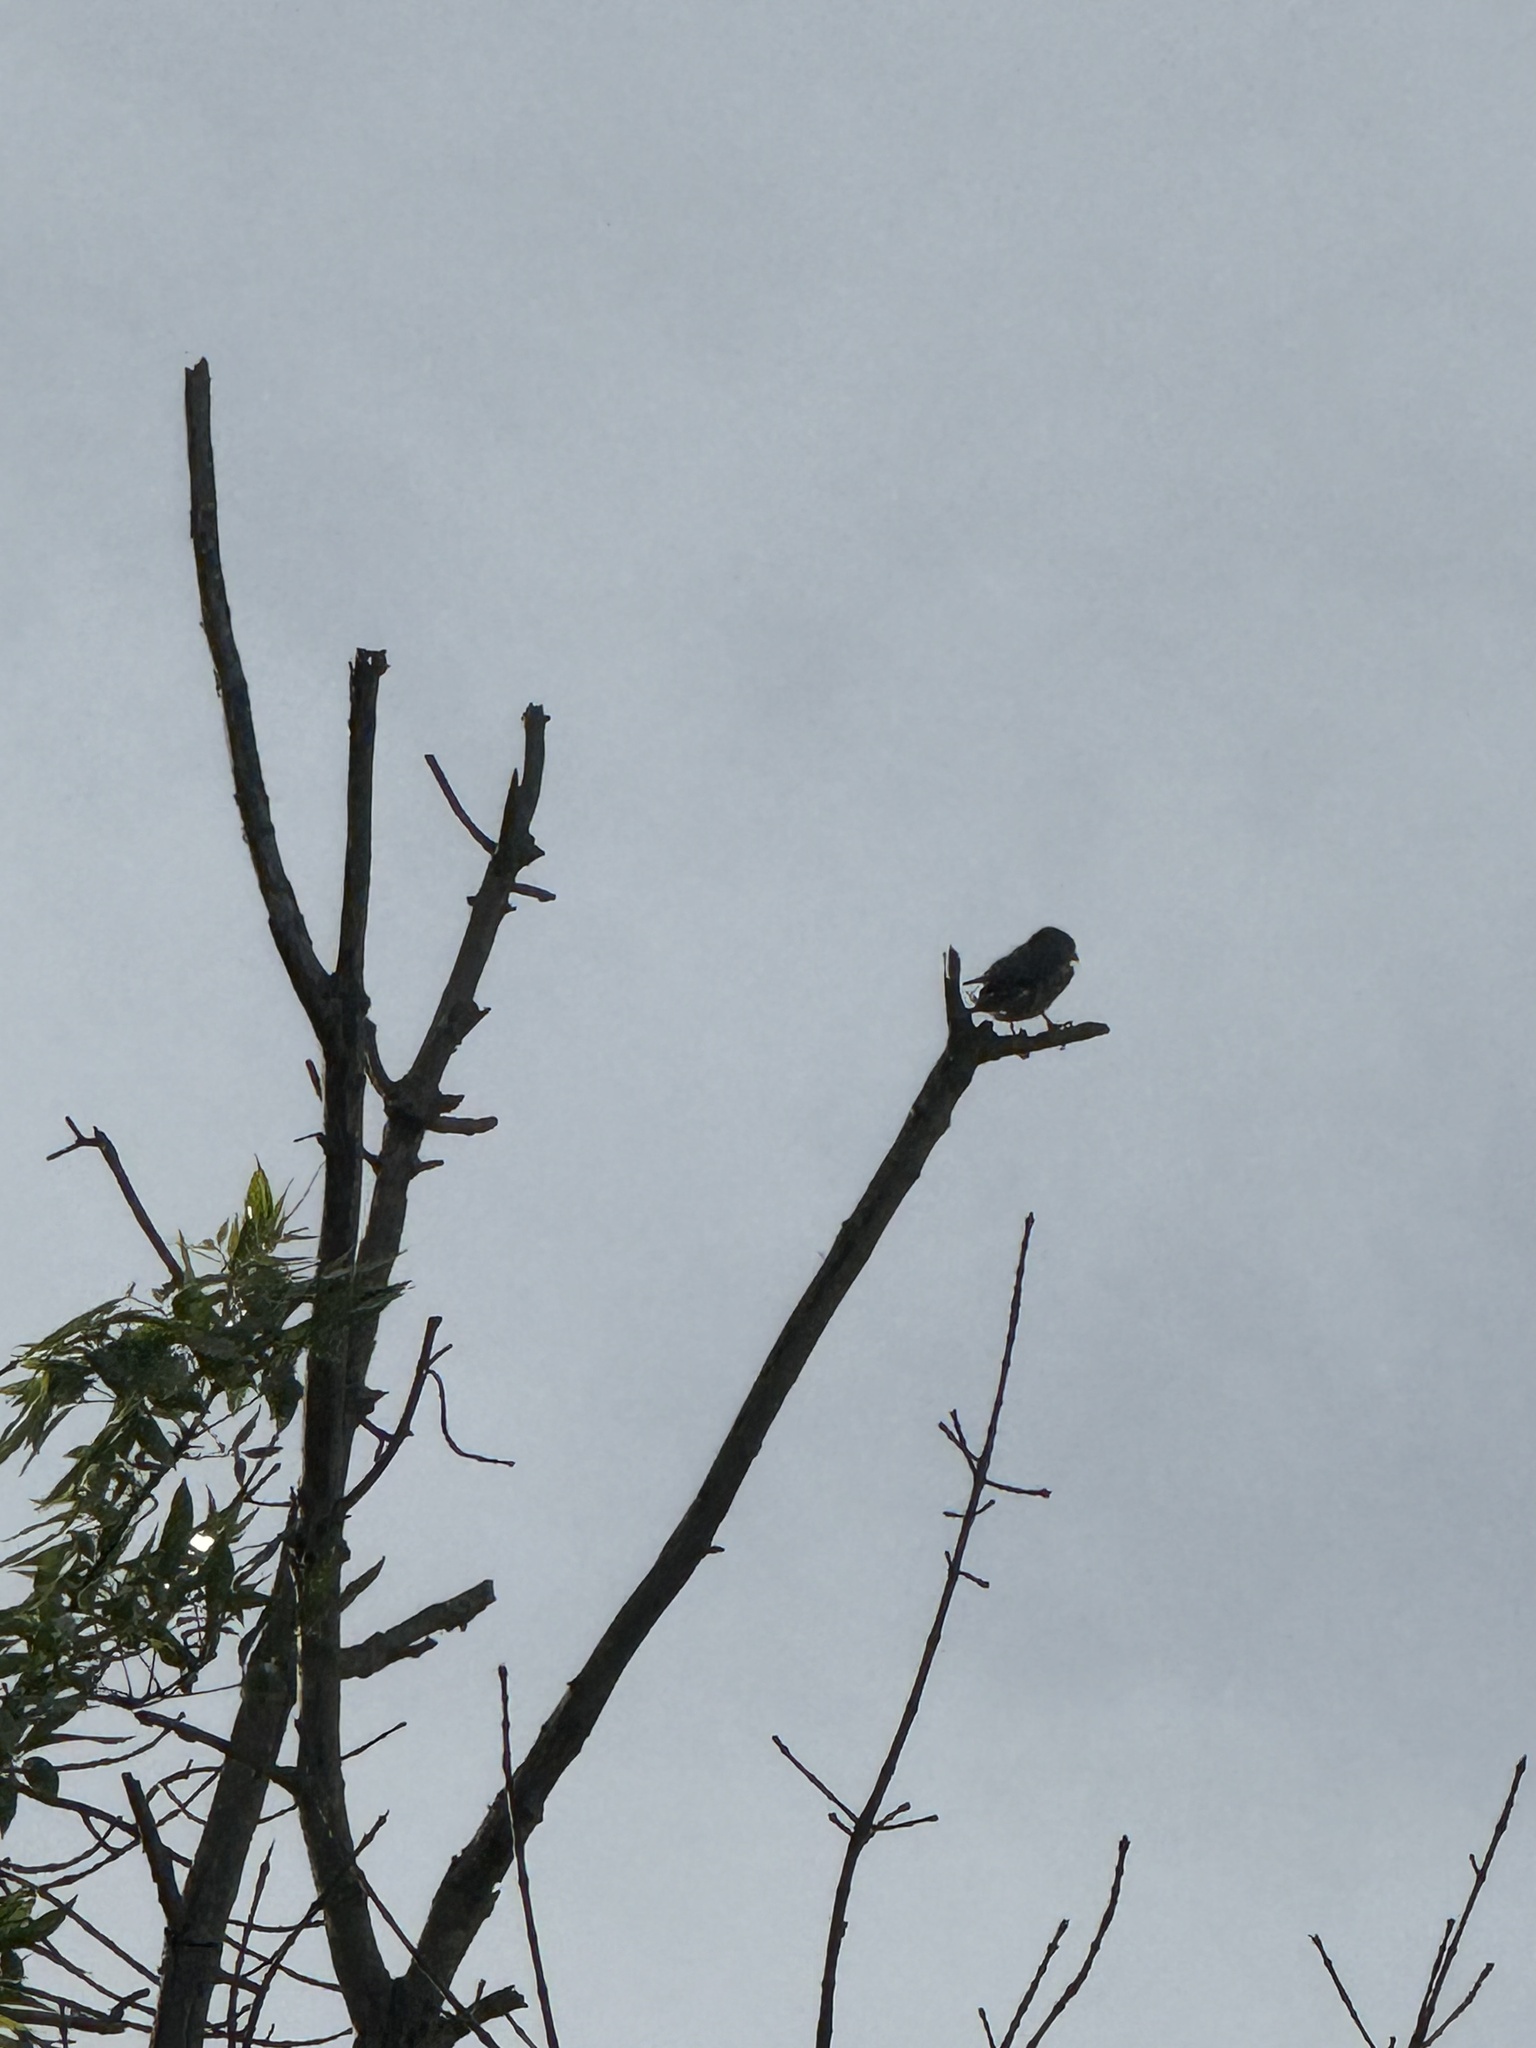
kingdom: Animalia
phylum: Chordata
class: Aves
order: Falconiformes
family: Falconidae
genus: Falco
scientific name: Falco columbarius
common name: Merlin
